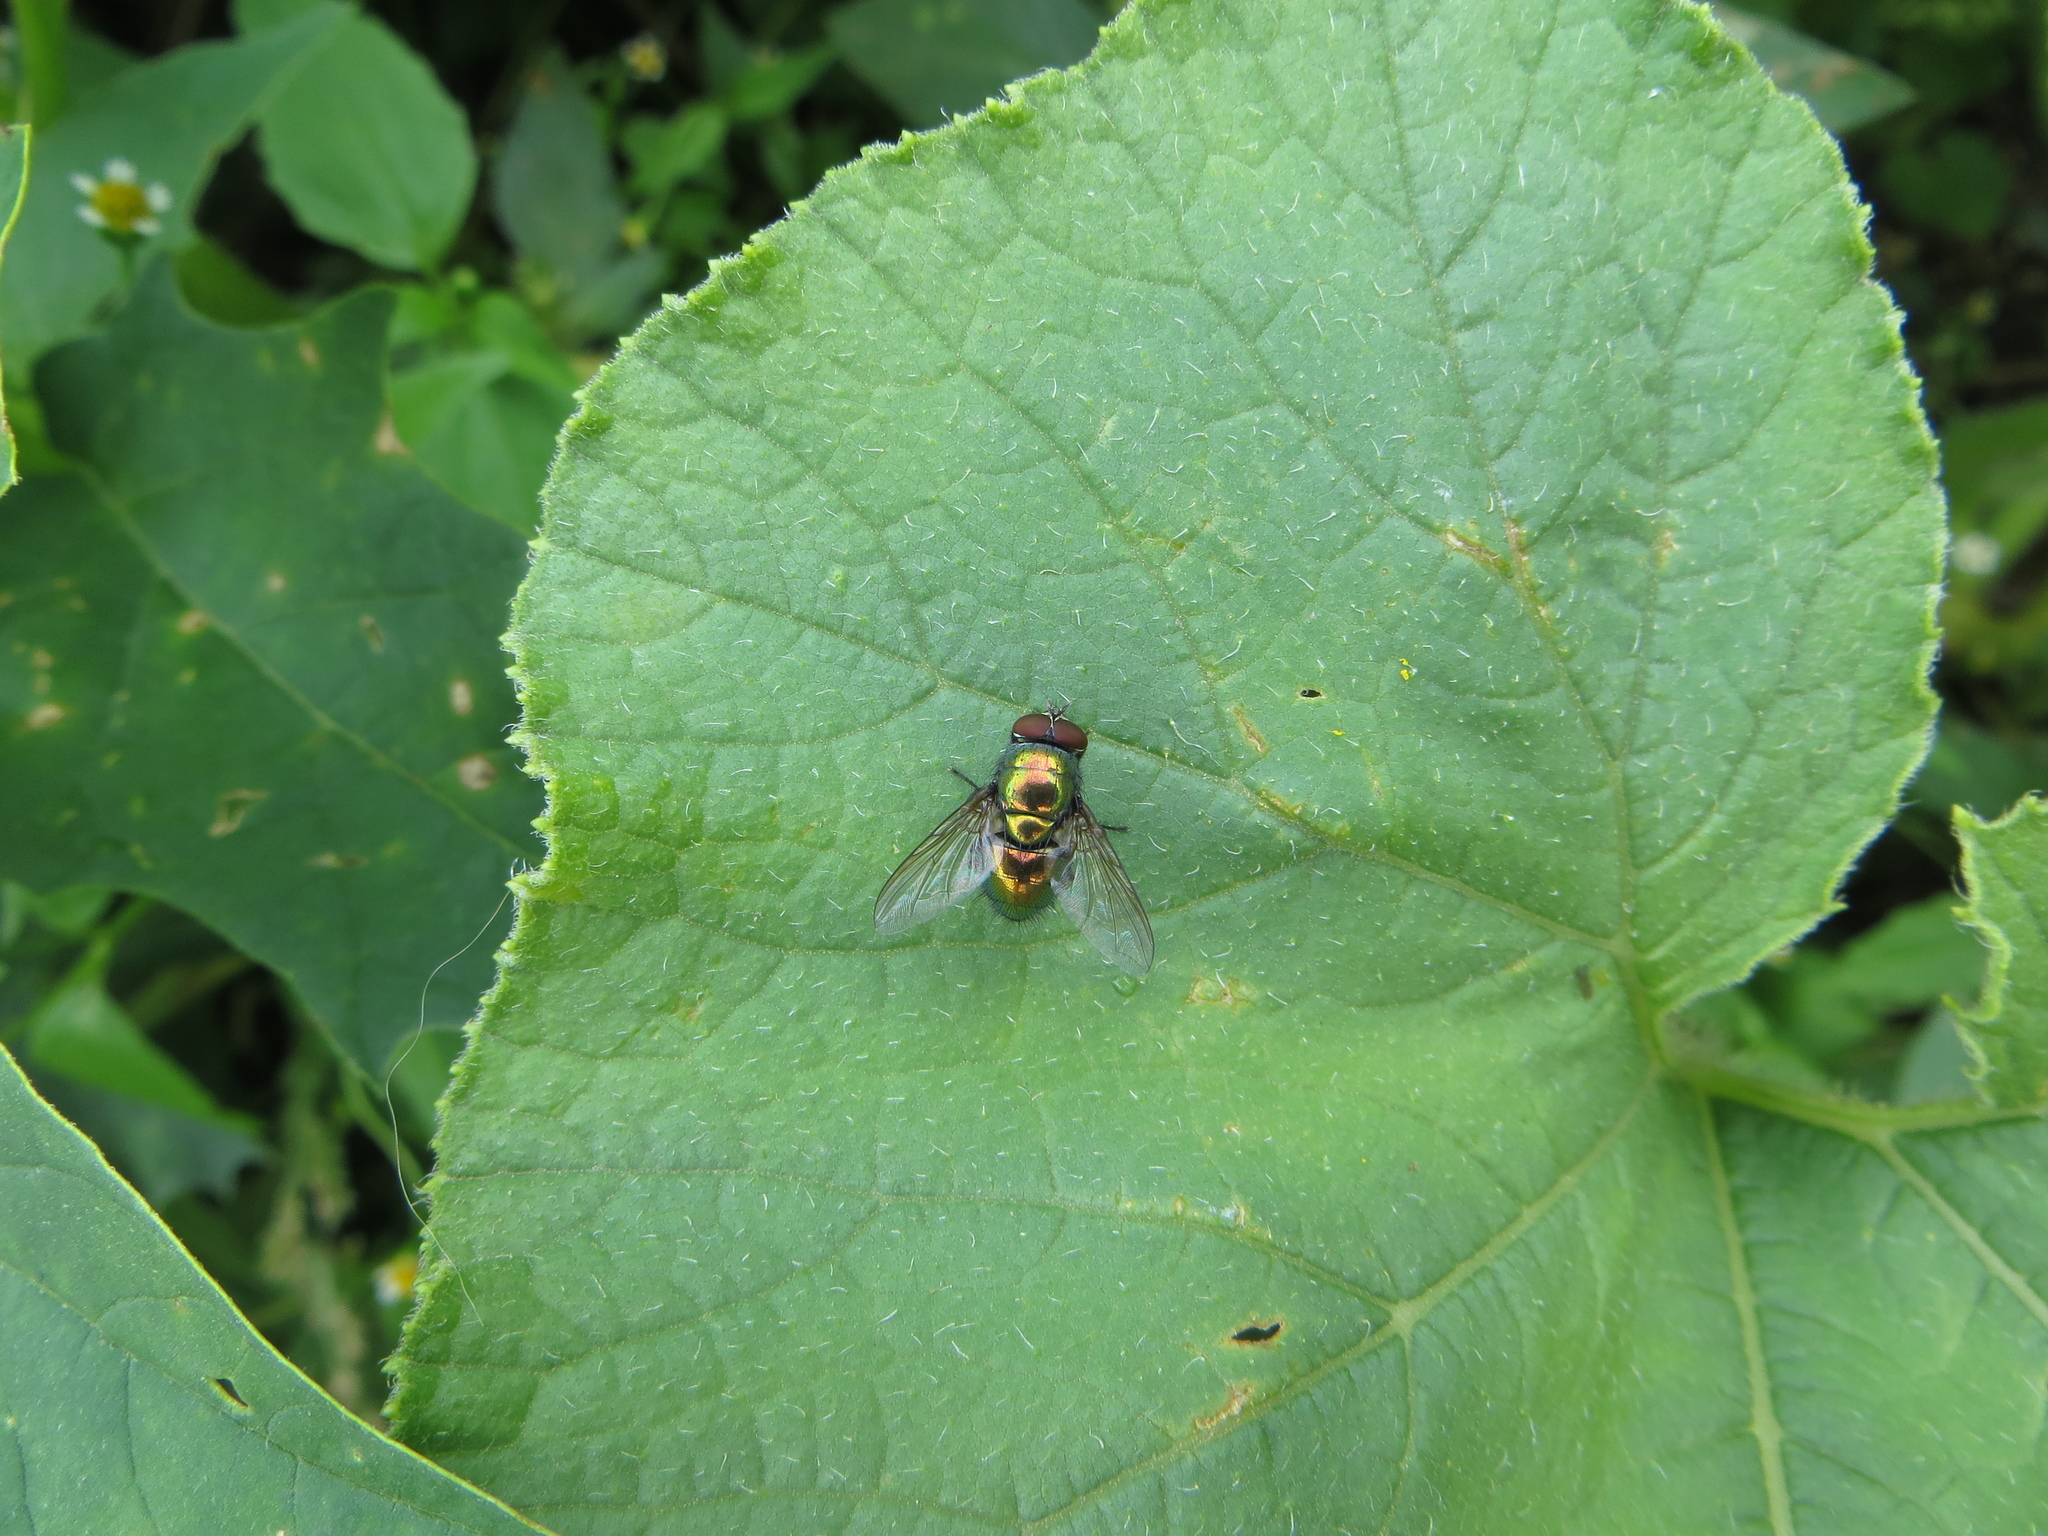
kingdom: Animalia
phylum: Arthropoda
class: Insecta
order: Diptera
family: Calliphoridae
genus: Lucilia
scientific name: Lucilia caesar
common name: Blow fly
